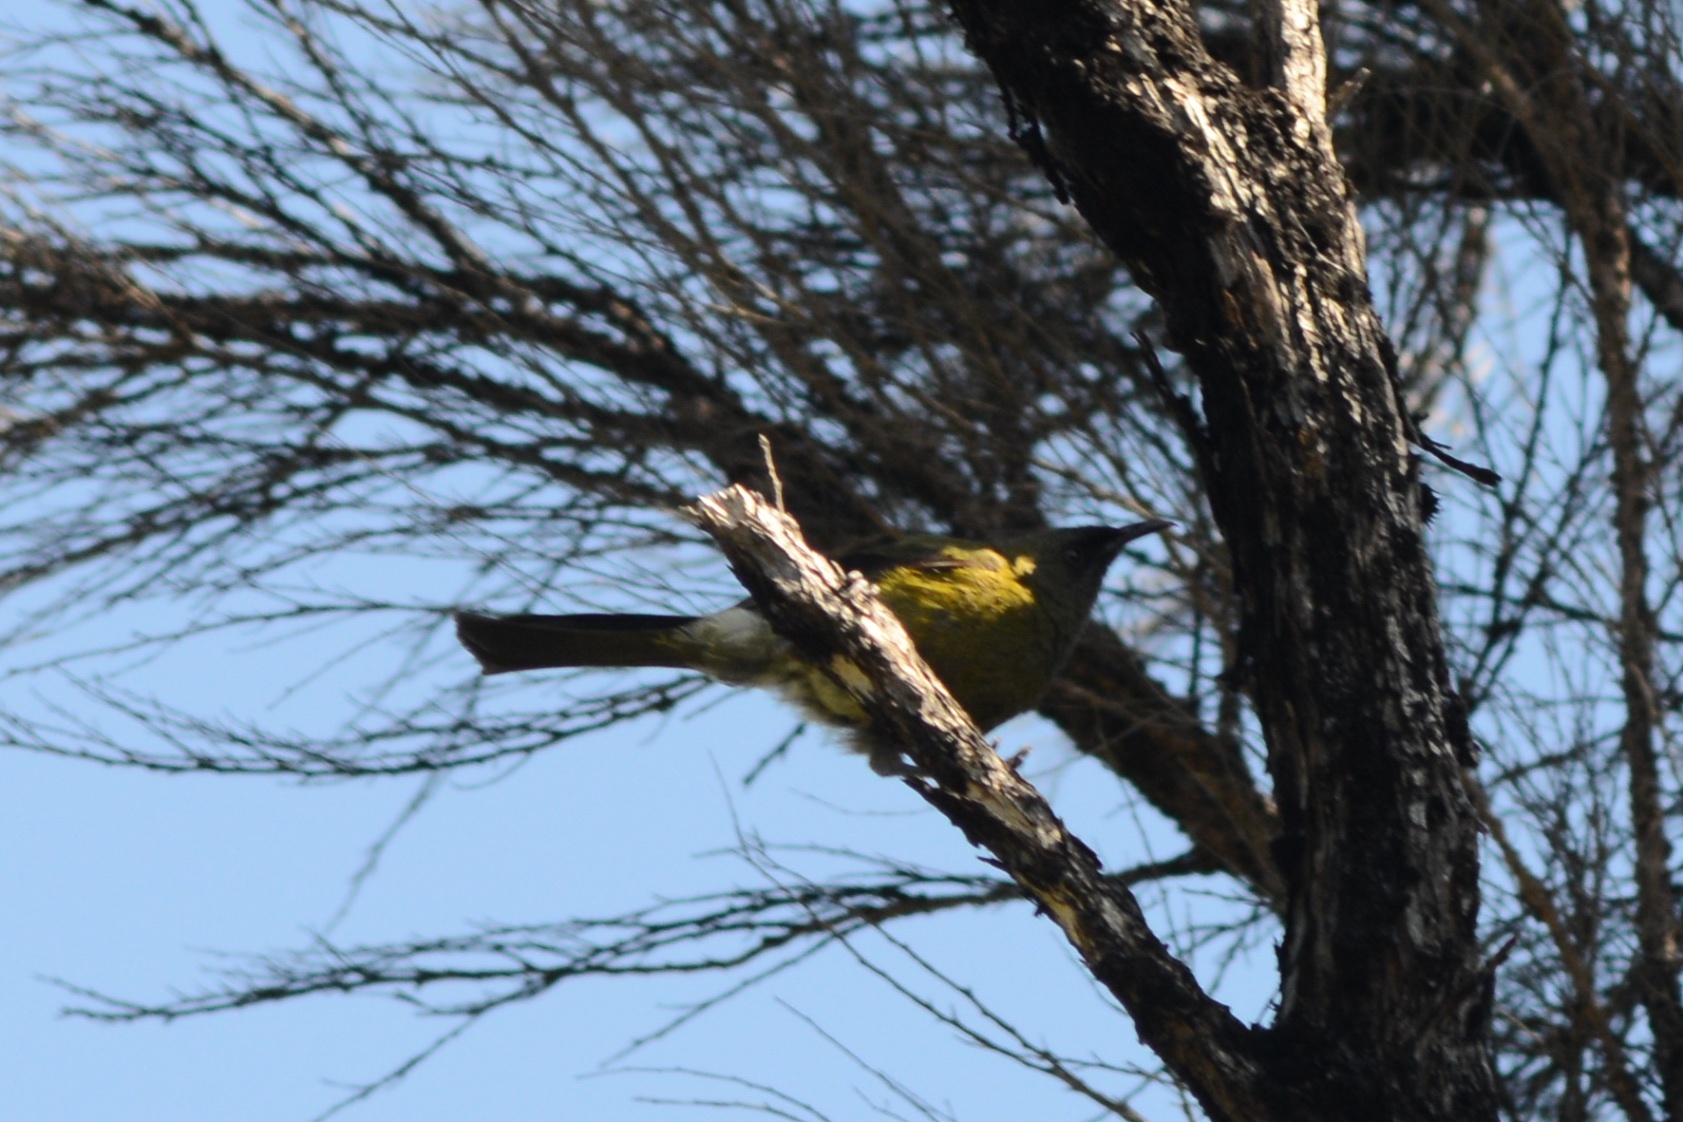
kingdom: Animalia
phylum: Chordata
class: Aves
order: Passeriformes
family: Meliphagidae
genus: Anthornis
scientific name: Anthornis melanura
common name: New zealand bellbird
